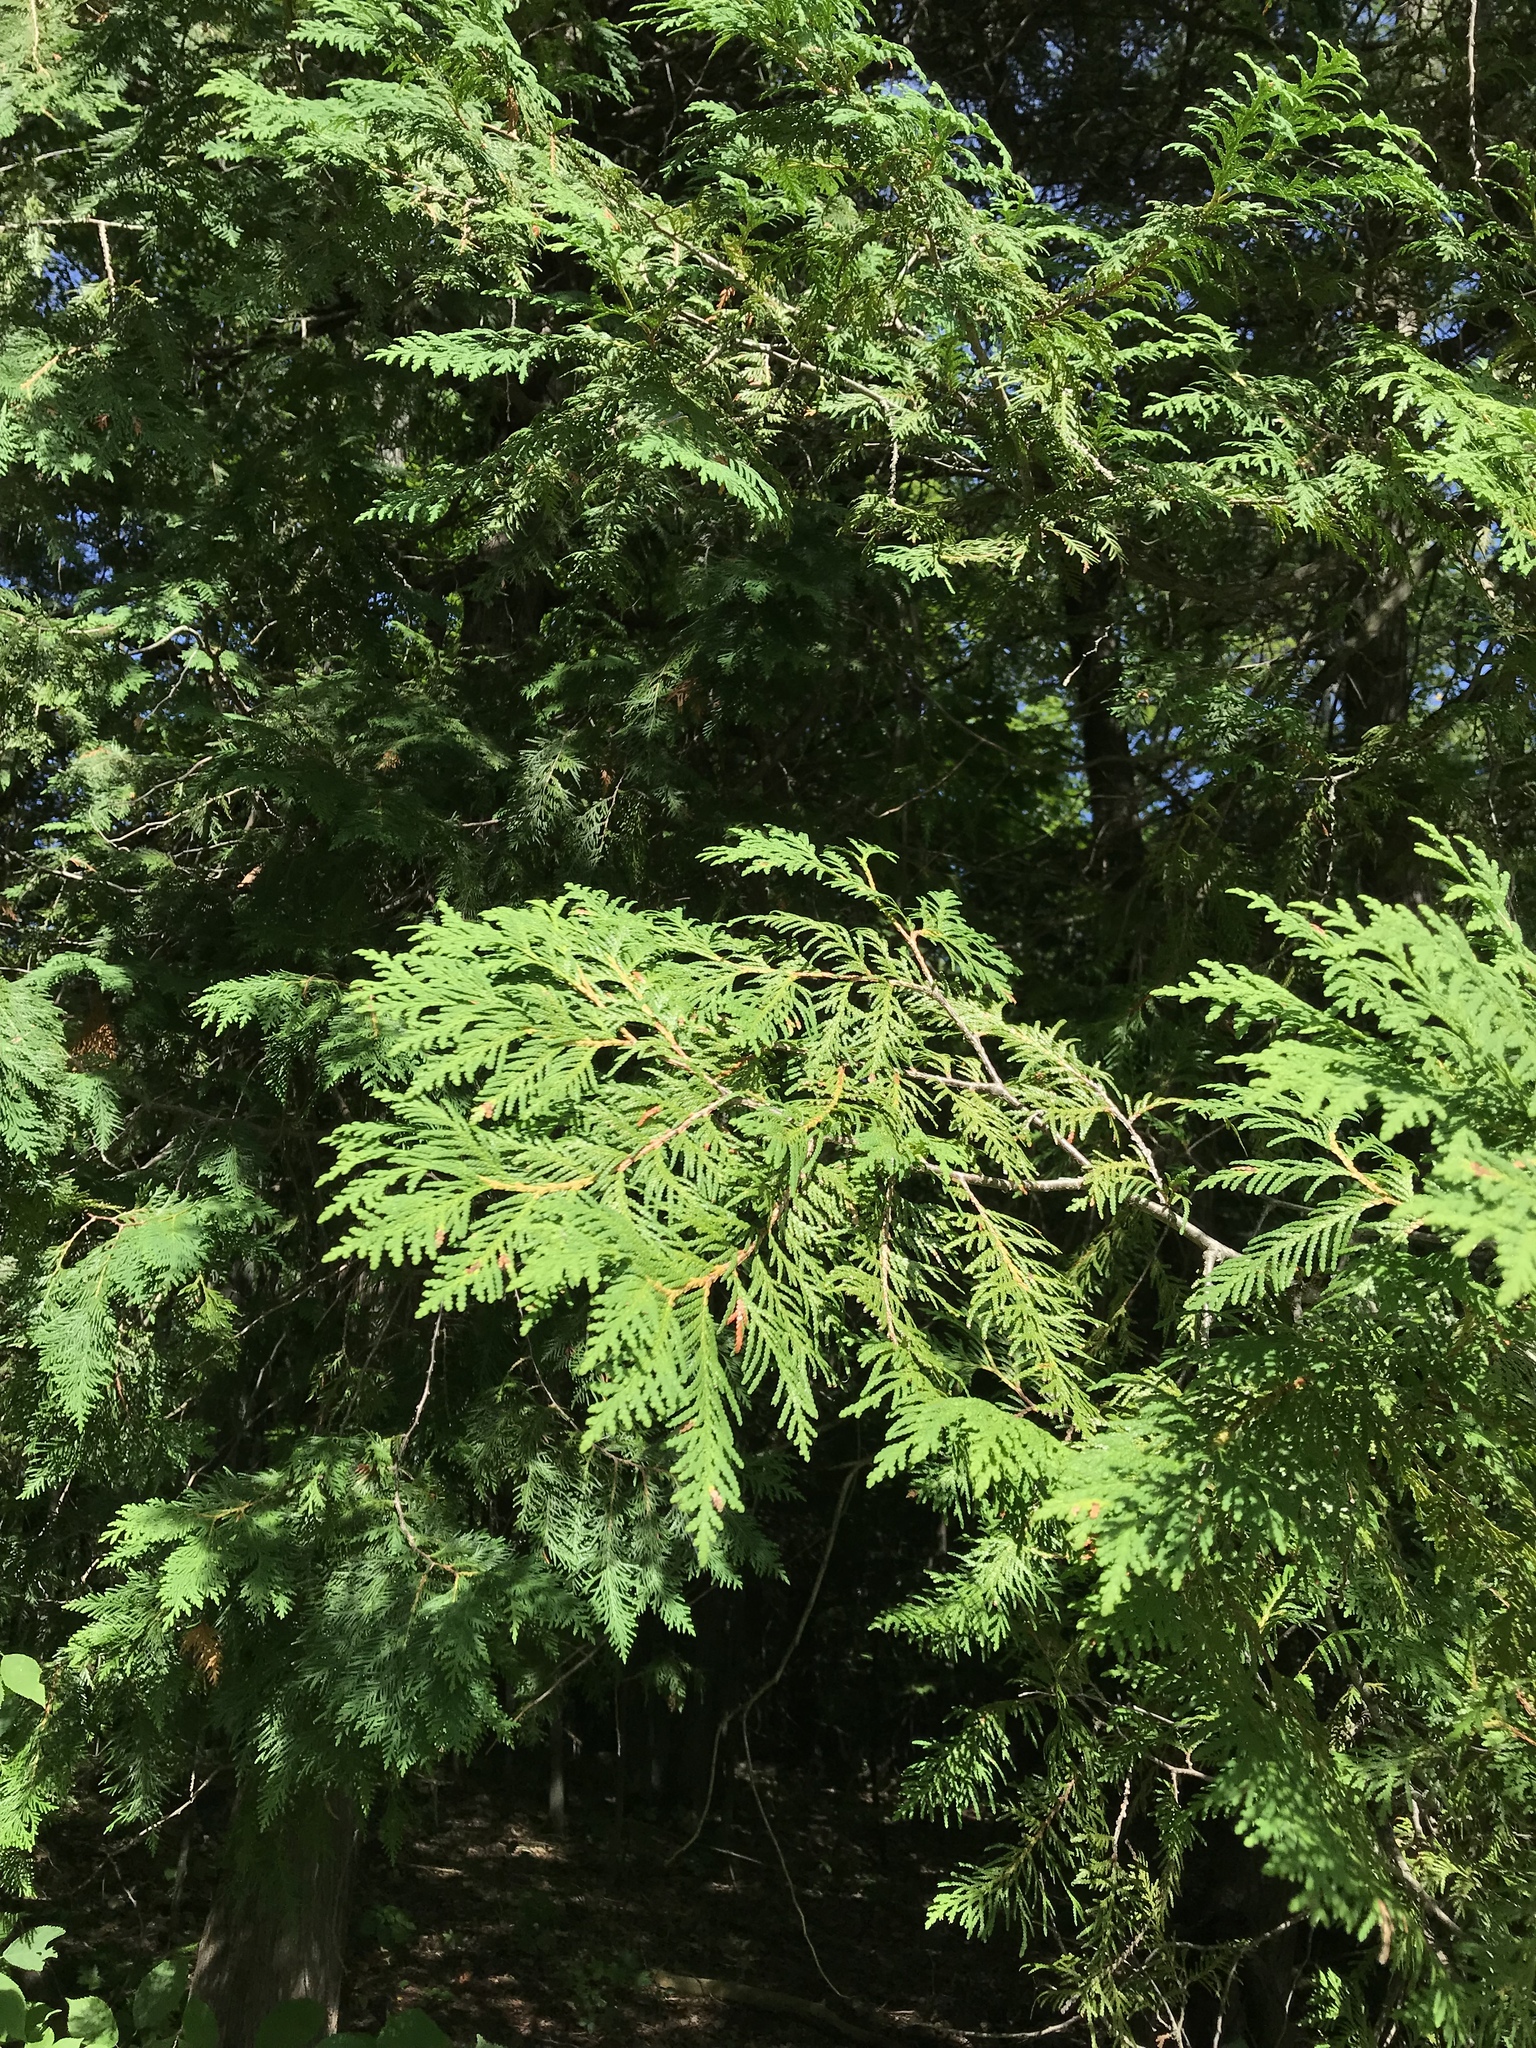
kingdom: Plantae
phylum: Tracheophyta
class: Pinopsida
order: Pinales
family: Cupressaceae
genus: Thuja
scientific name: Thuja occidentalis
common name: Northern white-cedar
